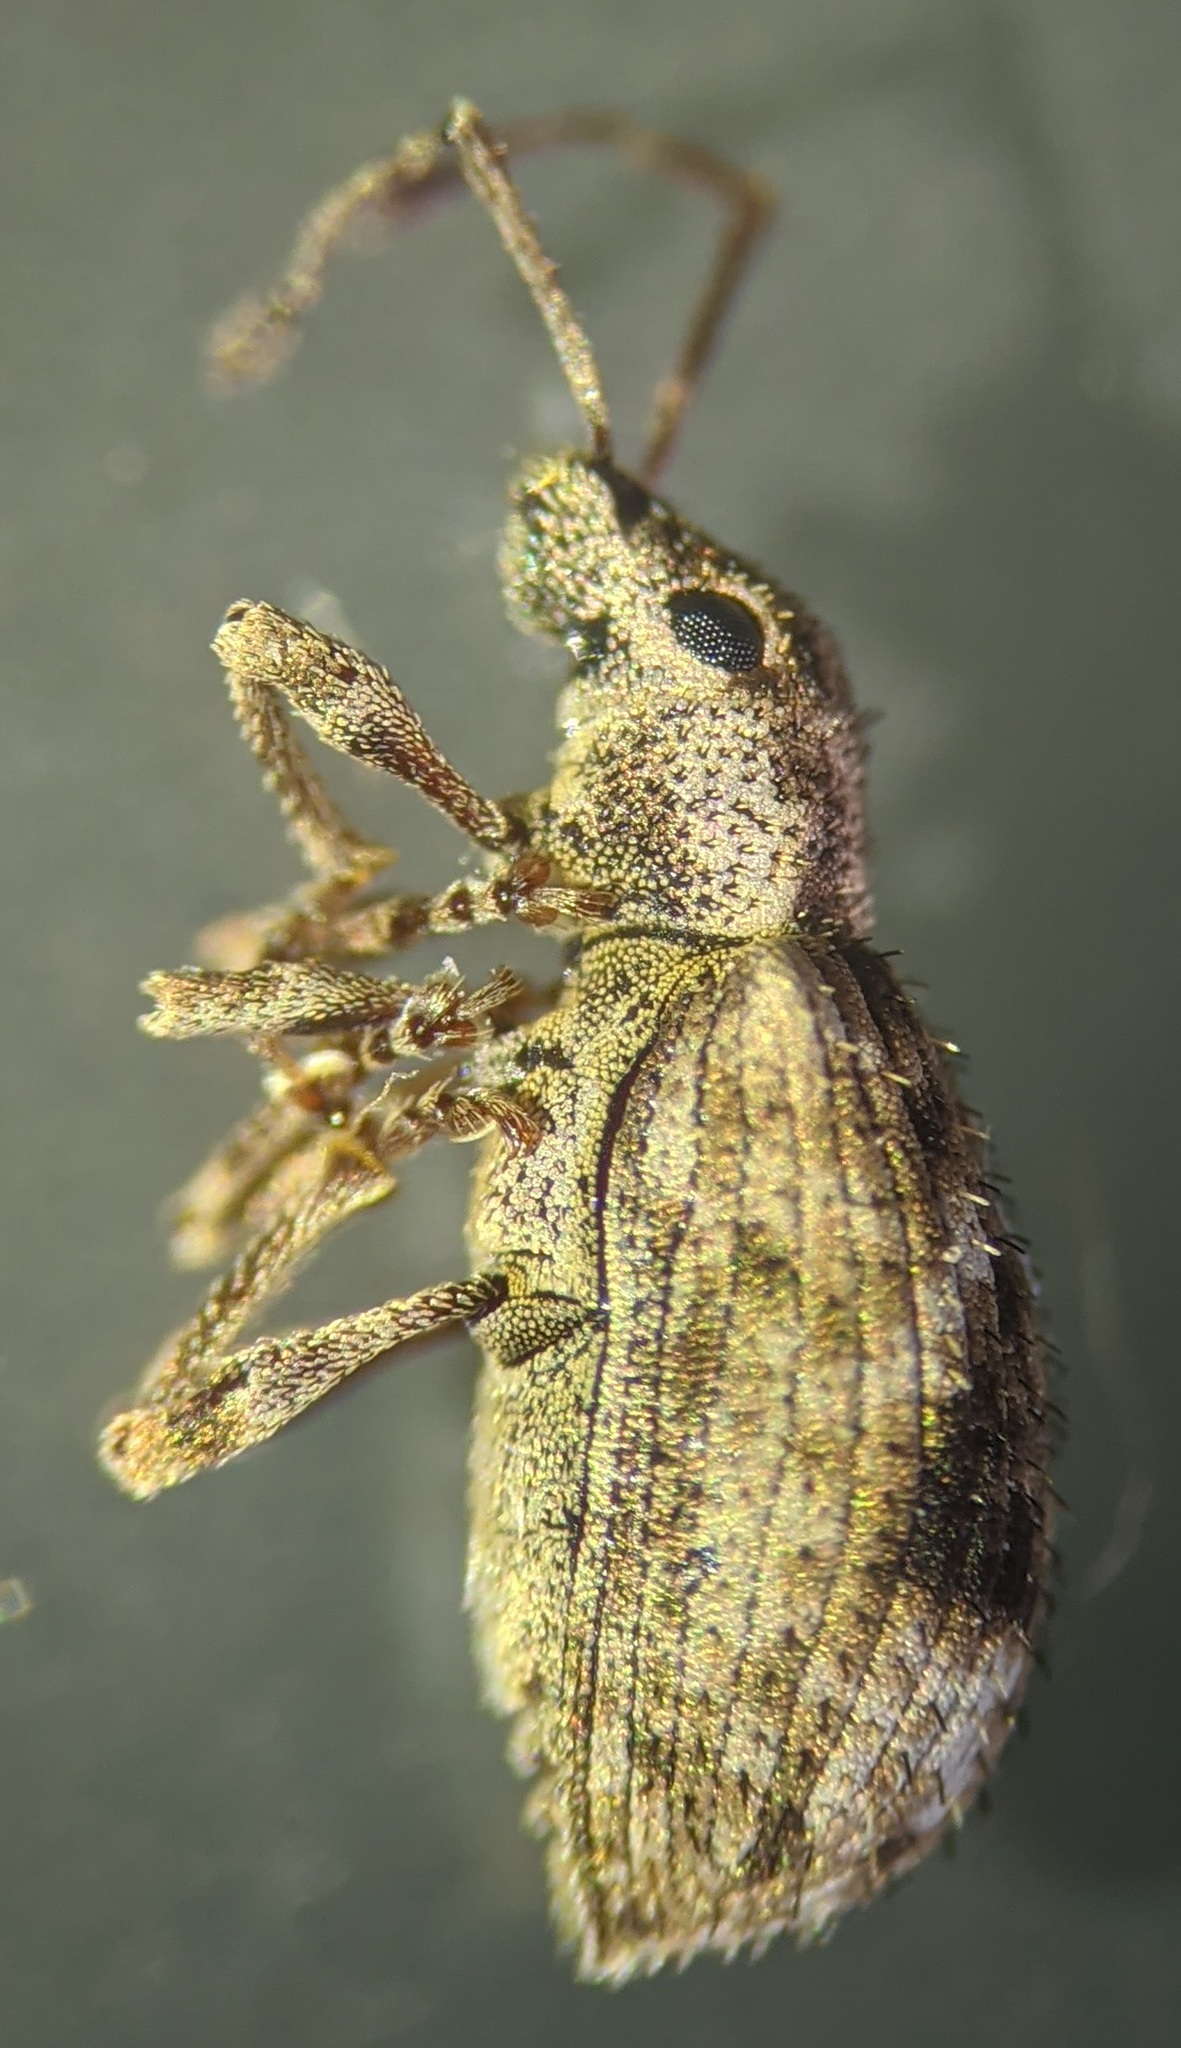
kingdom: Animalia
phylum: Arthropoda
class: Insecta
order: Coleoptera
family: Curculionidae
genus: Pseudoedophrys
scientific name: Pseudoedophrys hilleri
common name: Weevil
